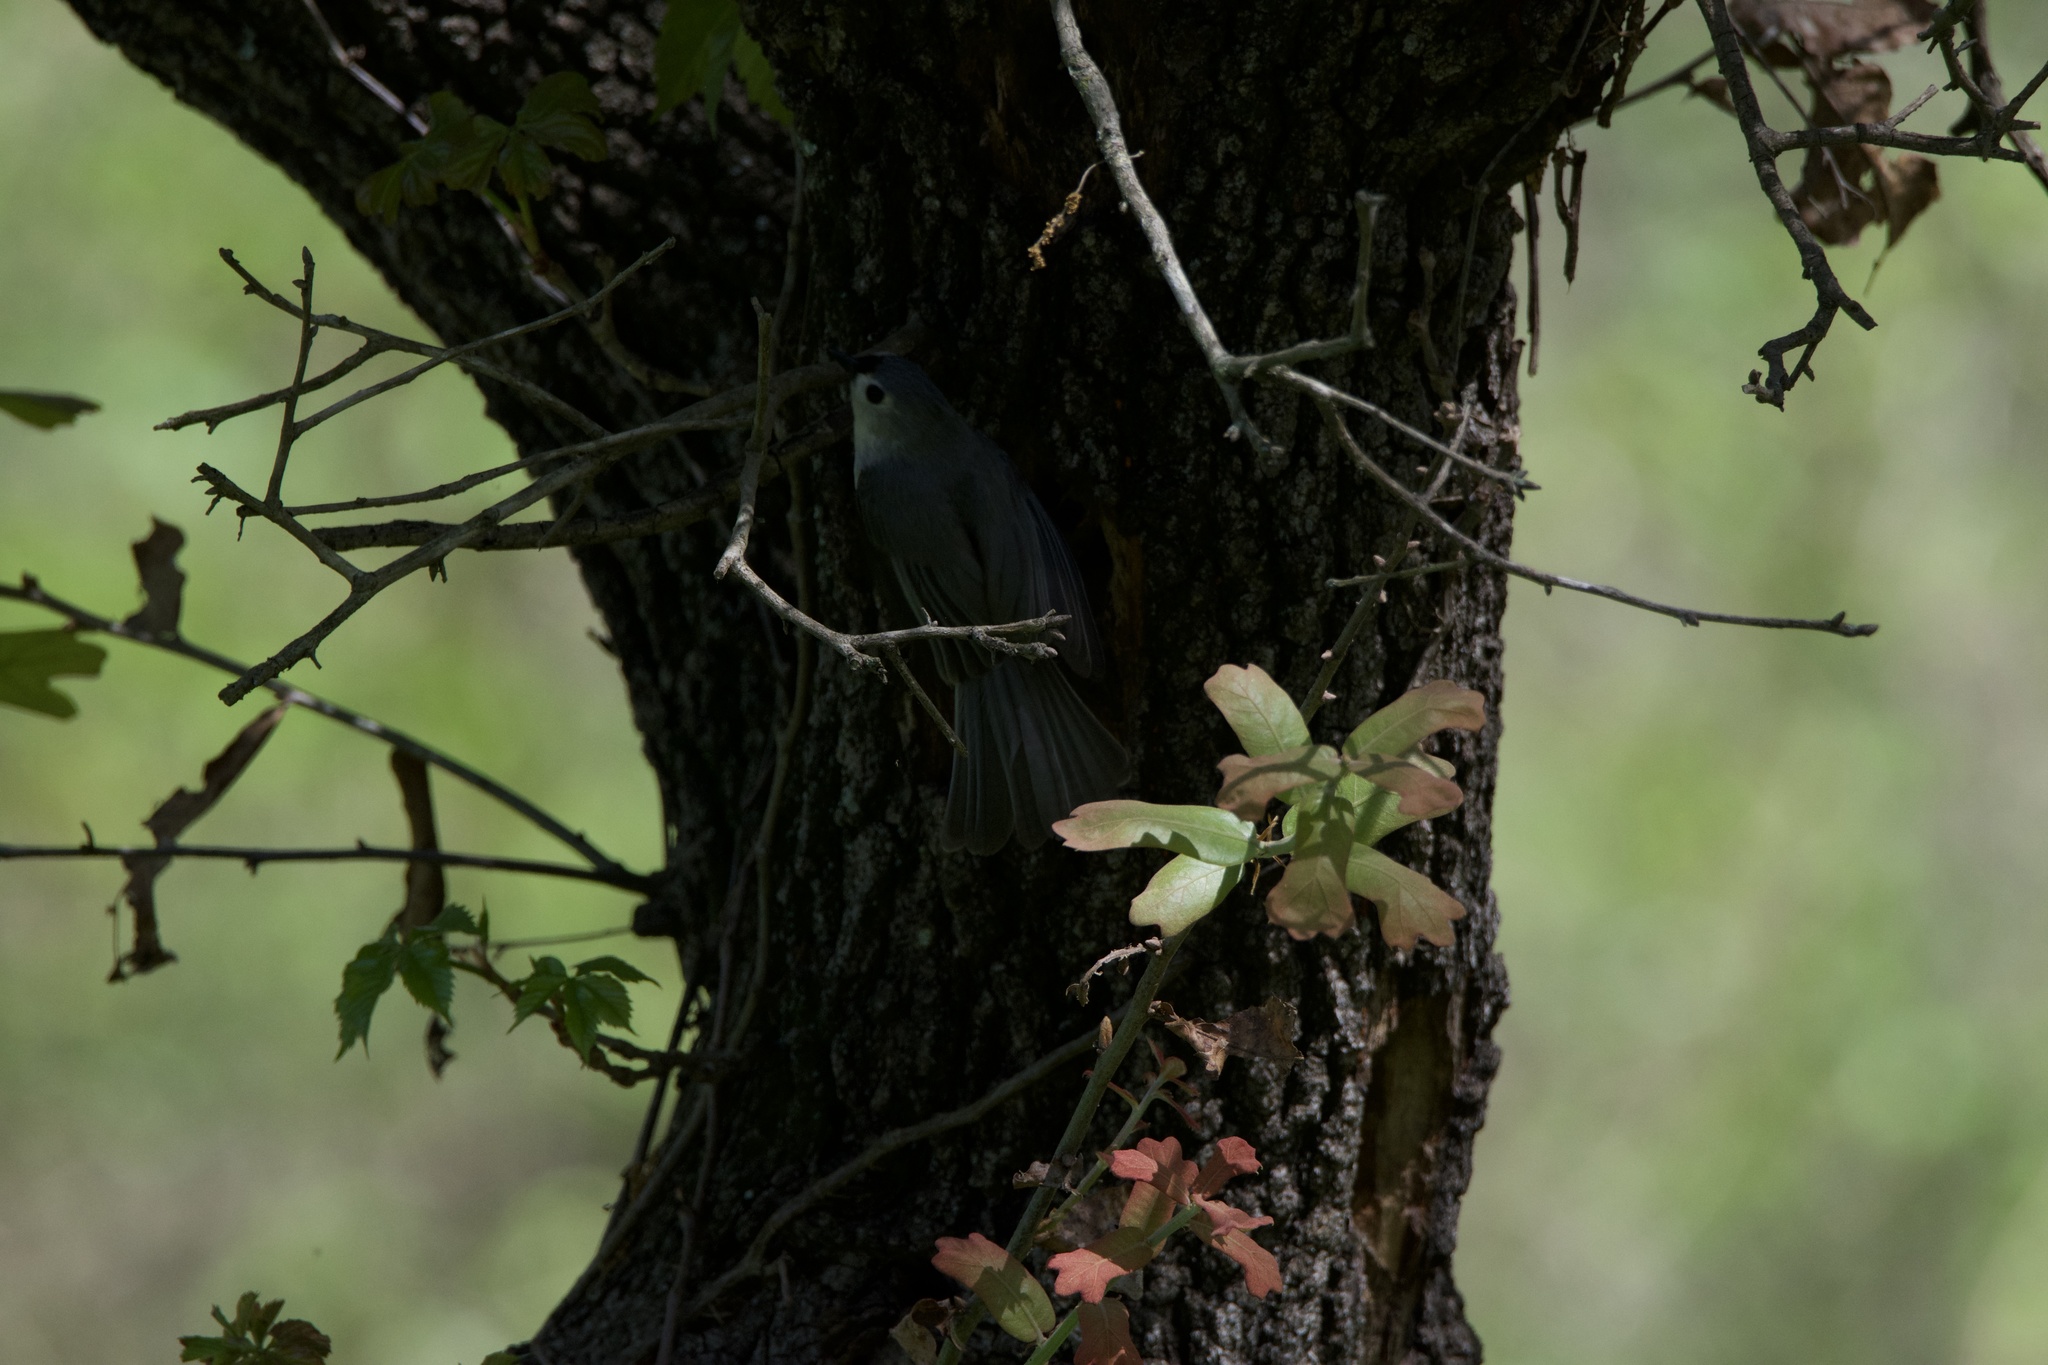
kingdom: Animalia
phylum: Chordata
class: Aves
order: Passeriformes
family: Paridae
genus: Baeolophus
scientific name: Baeolophus bicolor
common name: Tufted titmouse
